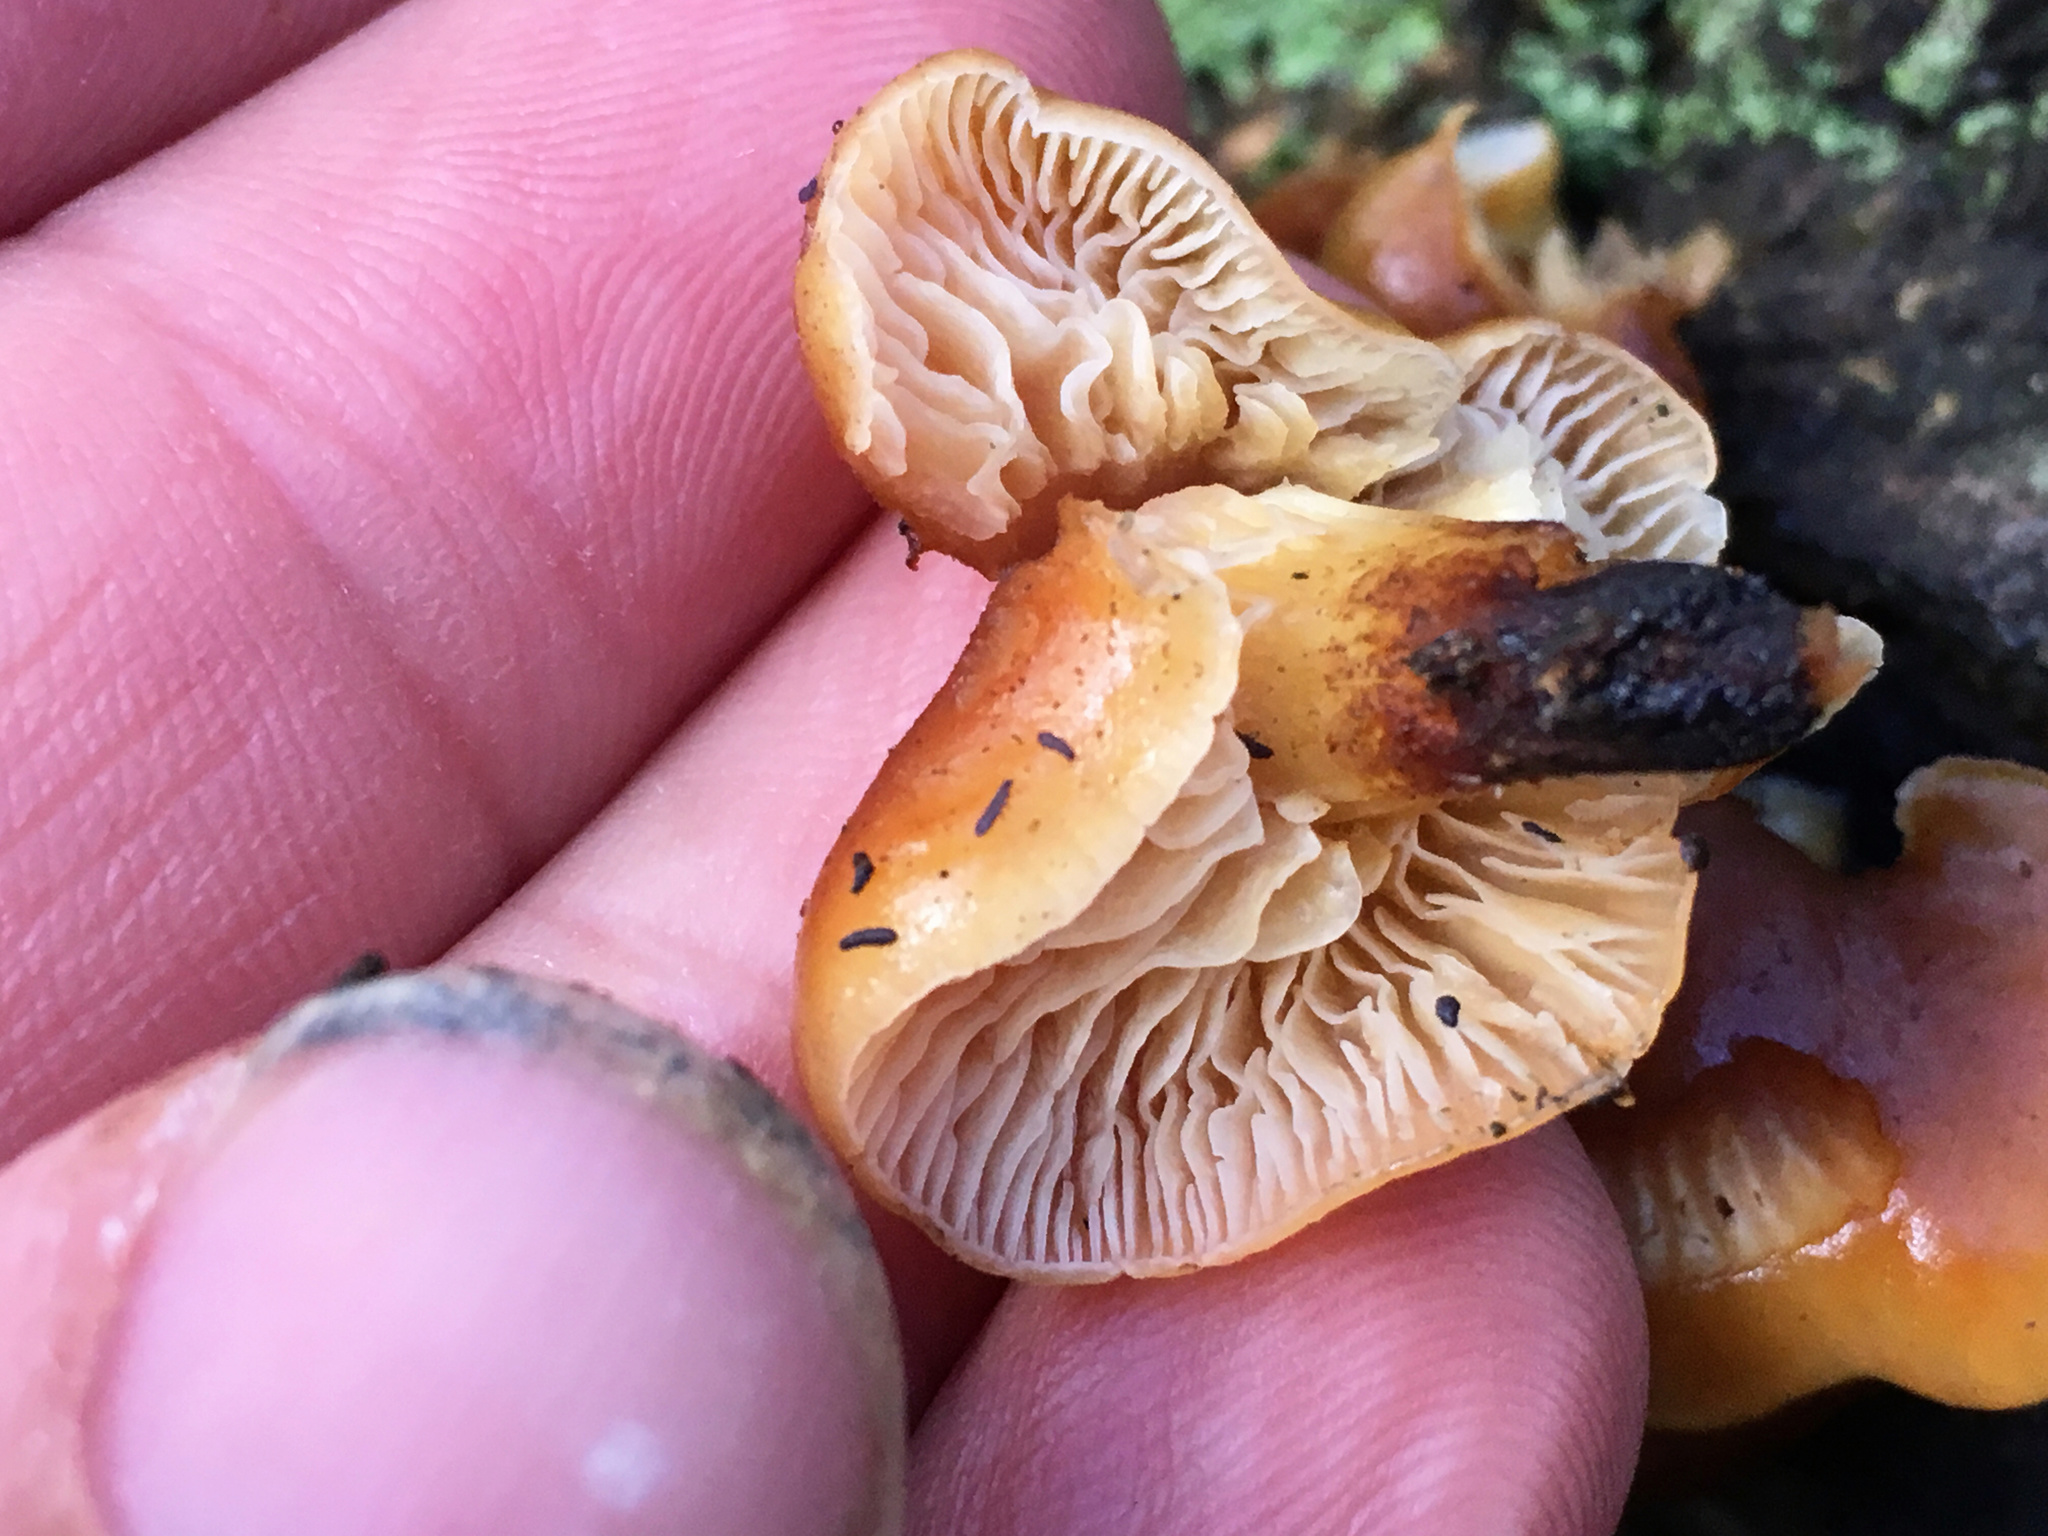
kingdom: Fungi
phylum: Basidiomycota
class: Agaricomycetes
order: Agaricales
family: Physalacriaceae
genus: Flammulina
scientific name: Flammulina velutipes
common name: Velvet shank
